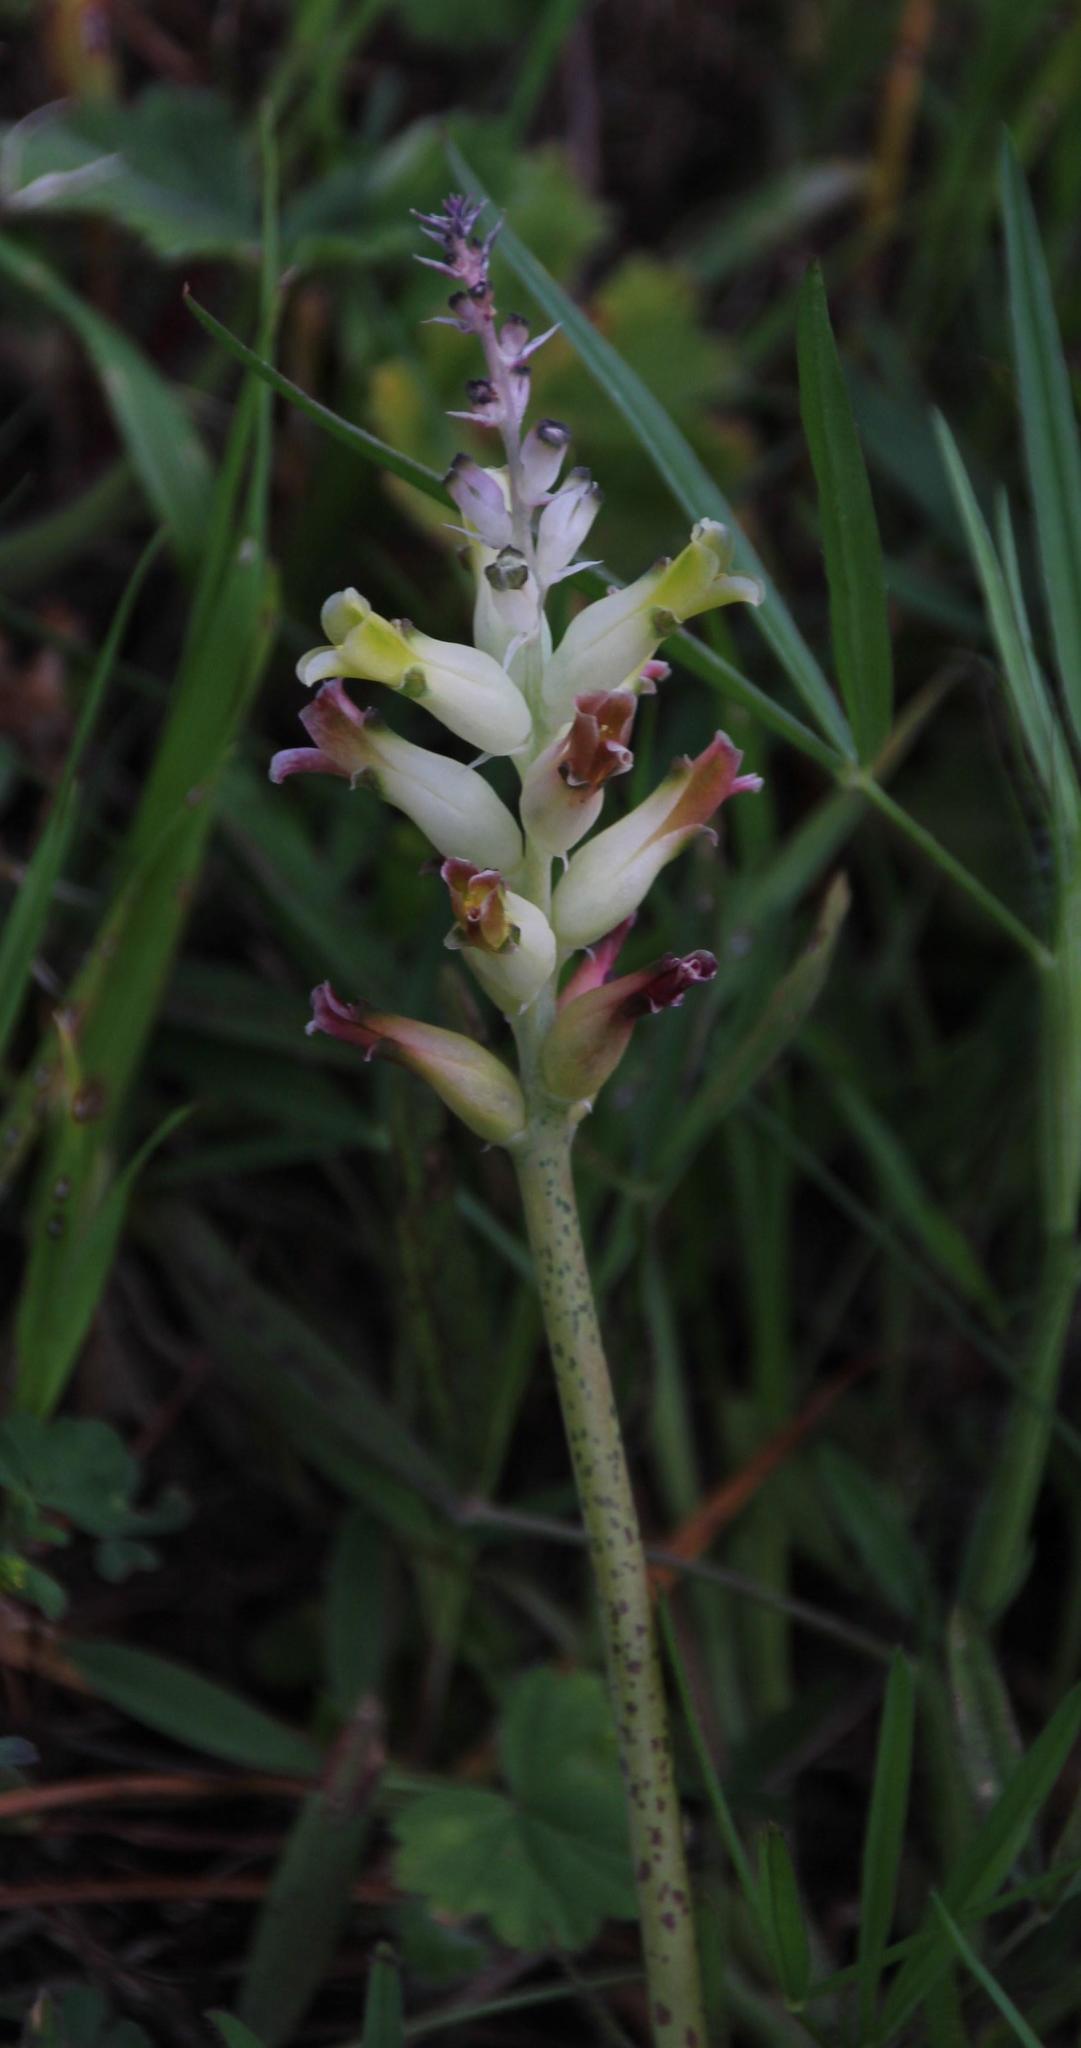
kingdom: Plantae
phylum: Tracheophyta
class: Liliopsida
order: Asparagales
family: Asparagaceae
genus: Lachenalia
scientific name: Lachenalia orchioides
